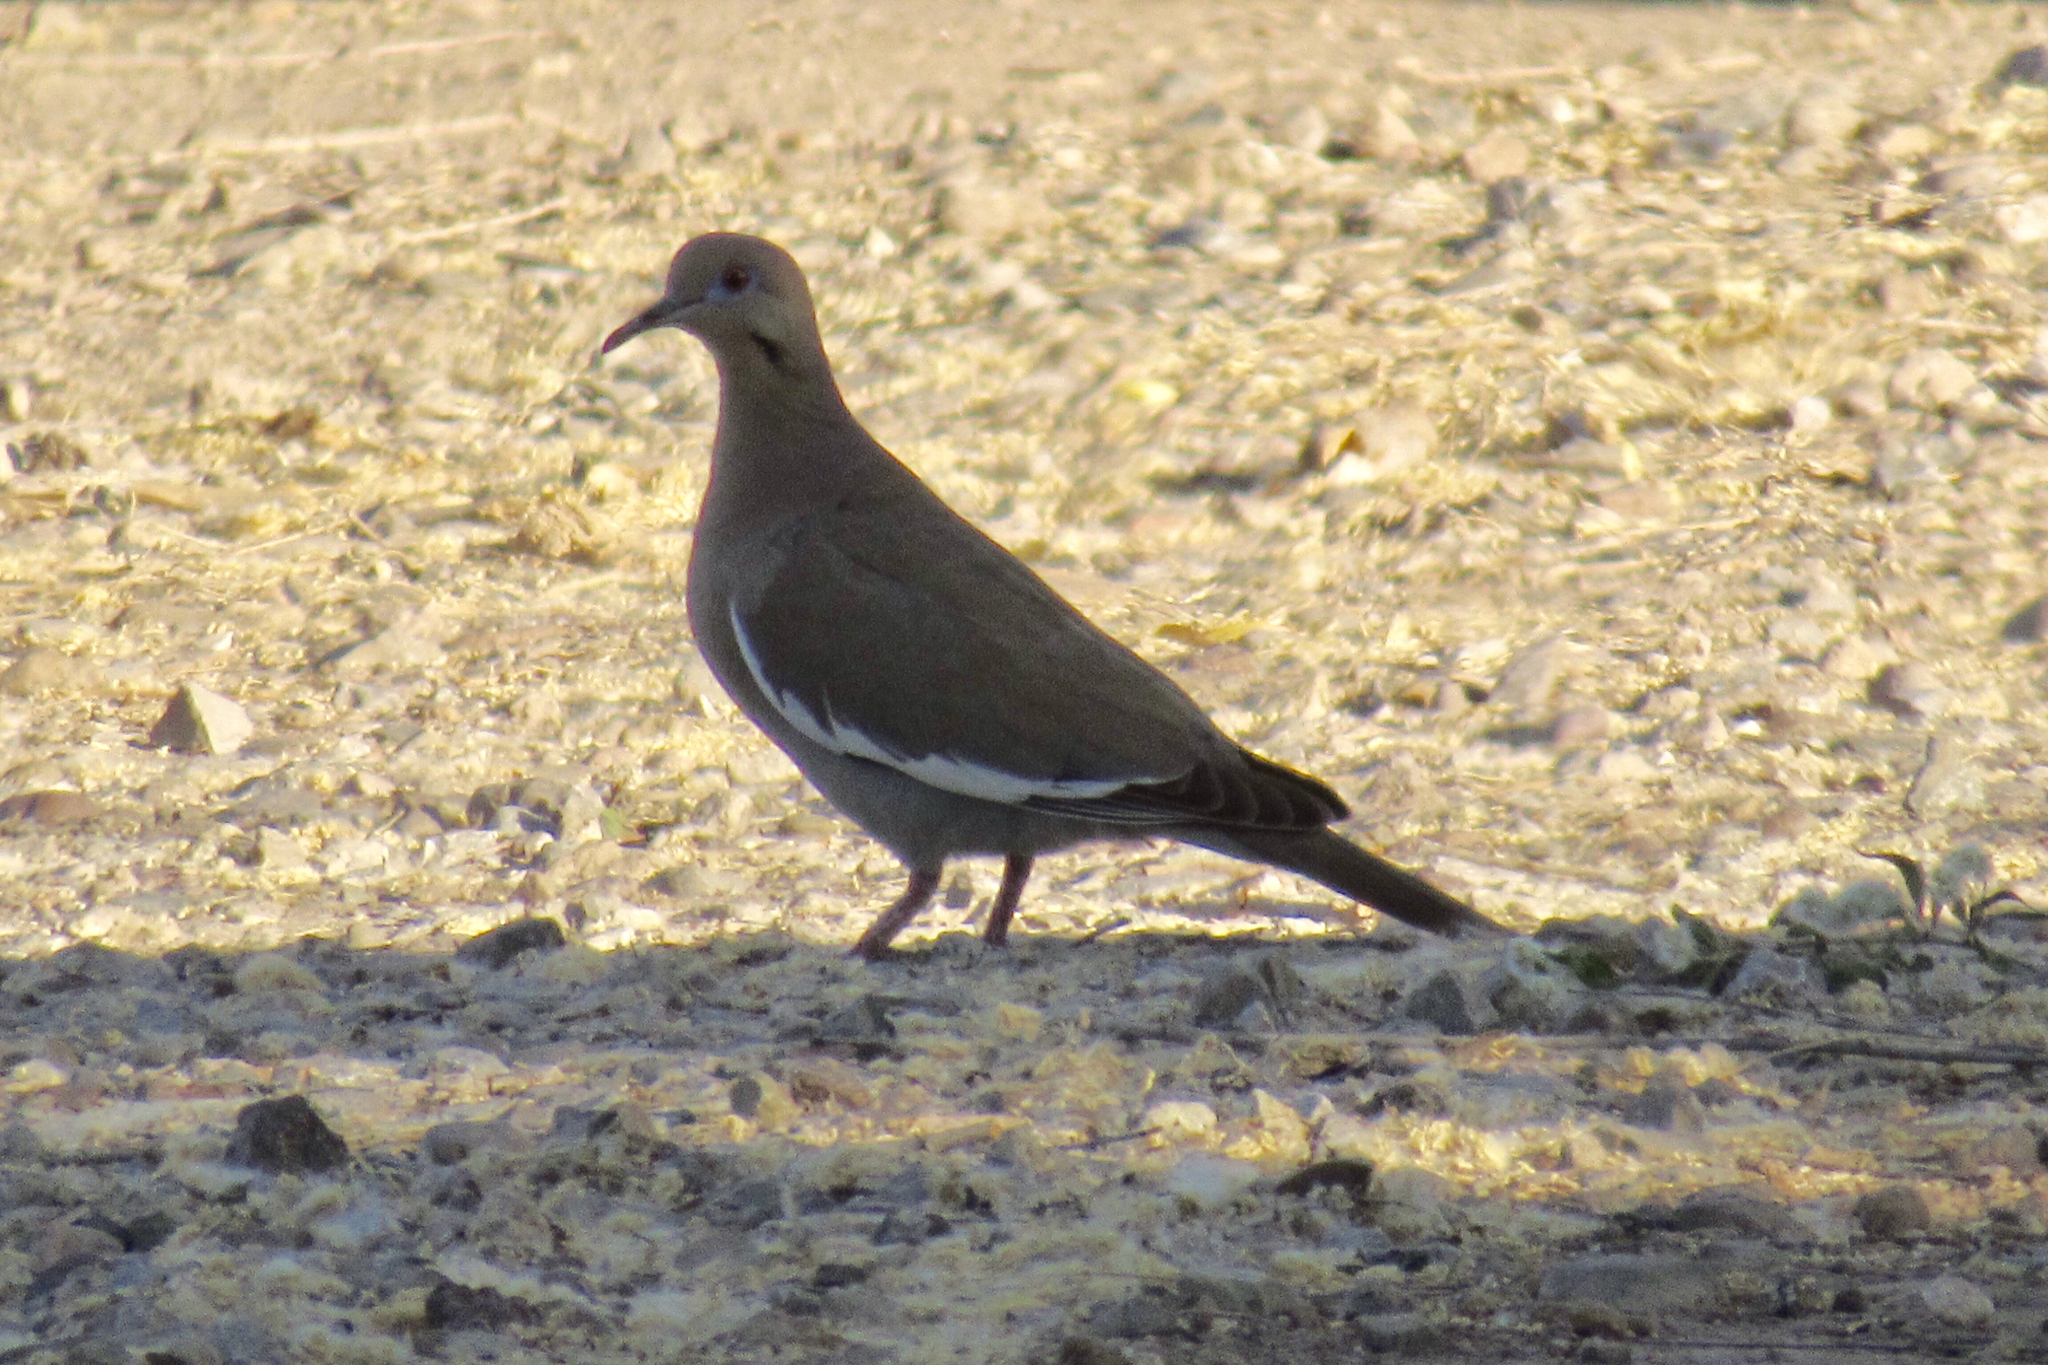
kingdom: Animalia
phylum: Chordata
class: Aves
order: Columbiformes
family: Columbidae
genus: Zenaida
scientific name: Zenaida asiatica
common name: White-winged dove
